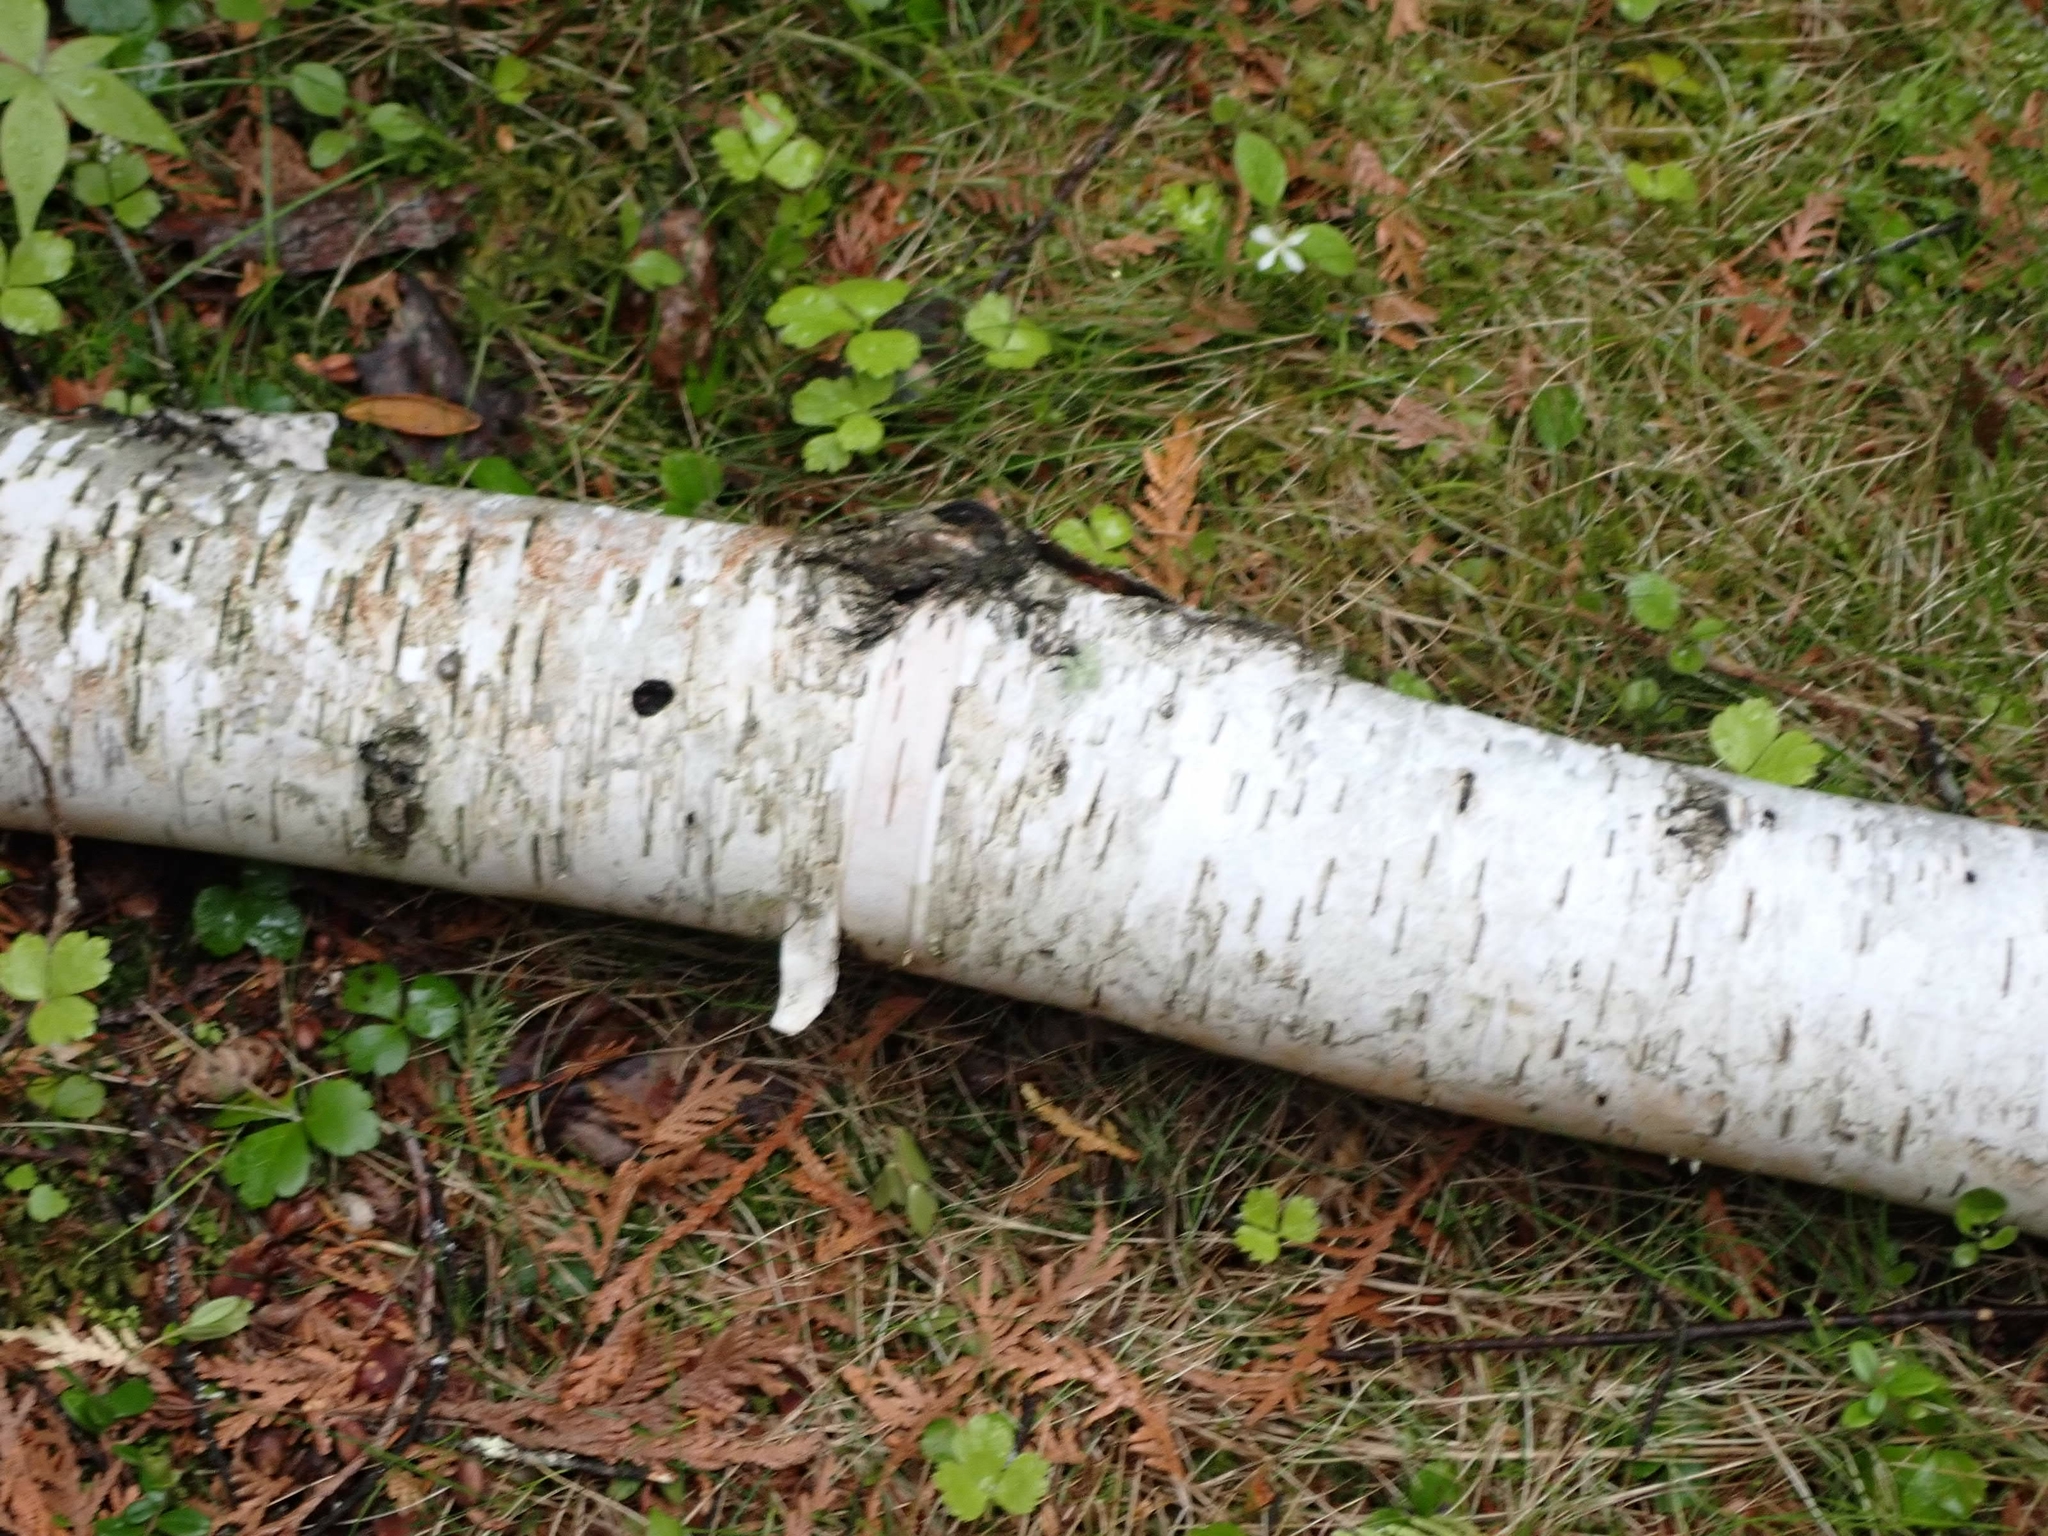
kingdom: Plantae
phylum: Tracheophyta
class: Magnoliopsida
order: Fagales
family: Betulaceae
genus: Betula
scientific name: Betula papyrifera
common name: Paper birch
